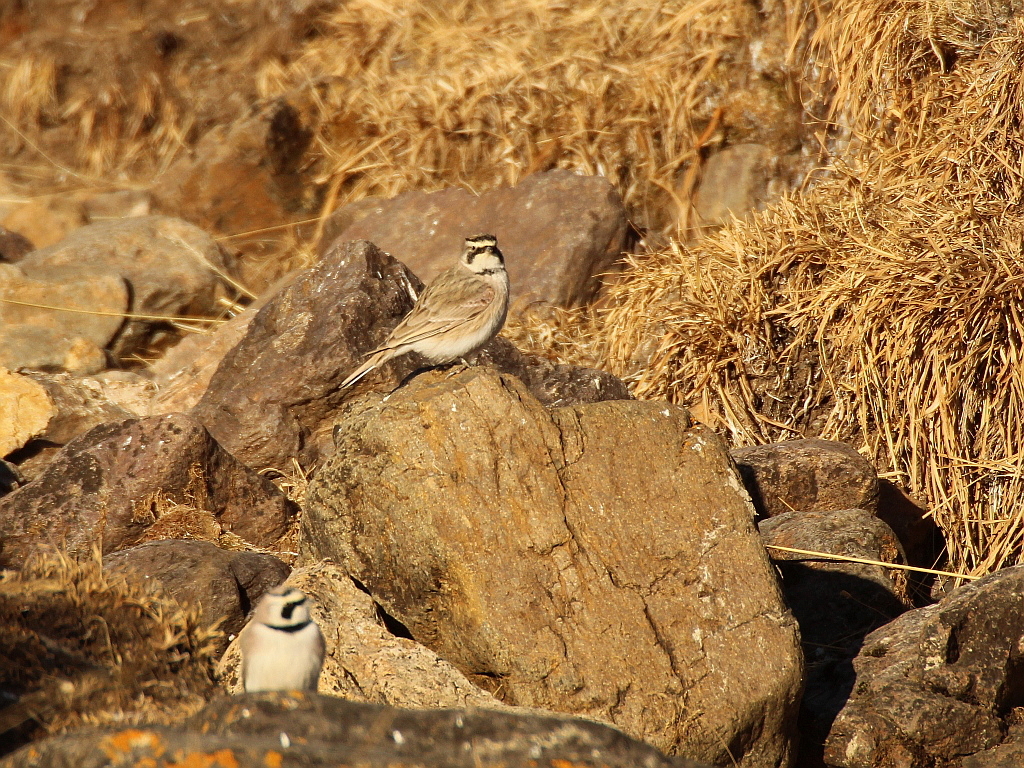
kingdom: Animalia
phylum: Chordata
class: Aves
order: Passeriformes
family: Alaudidae
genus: Eremophila
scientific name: Eremophila alpestris
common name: Horned lark
